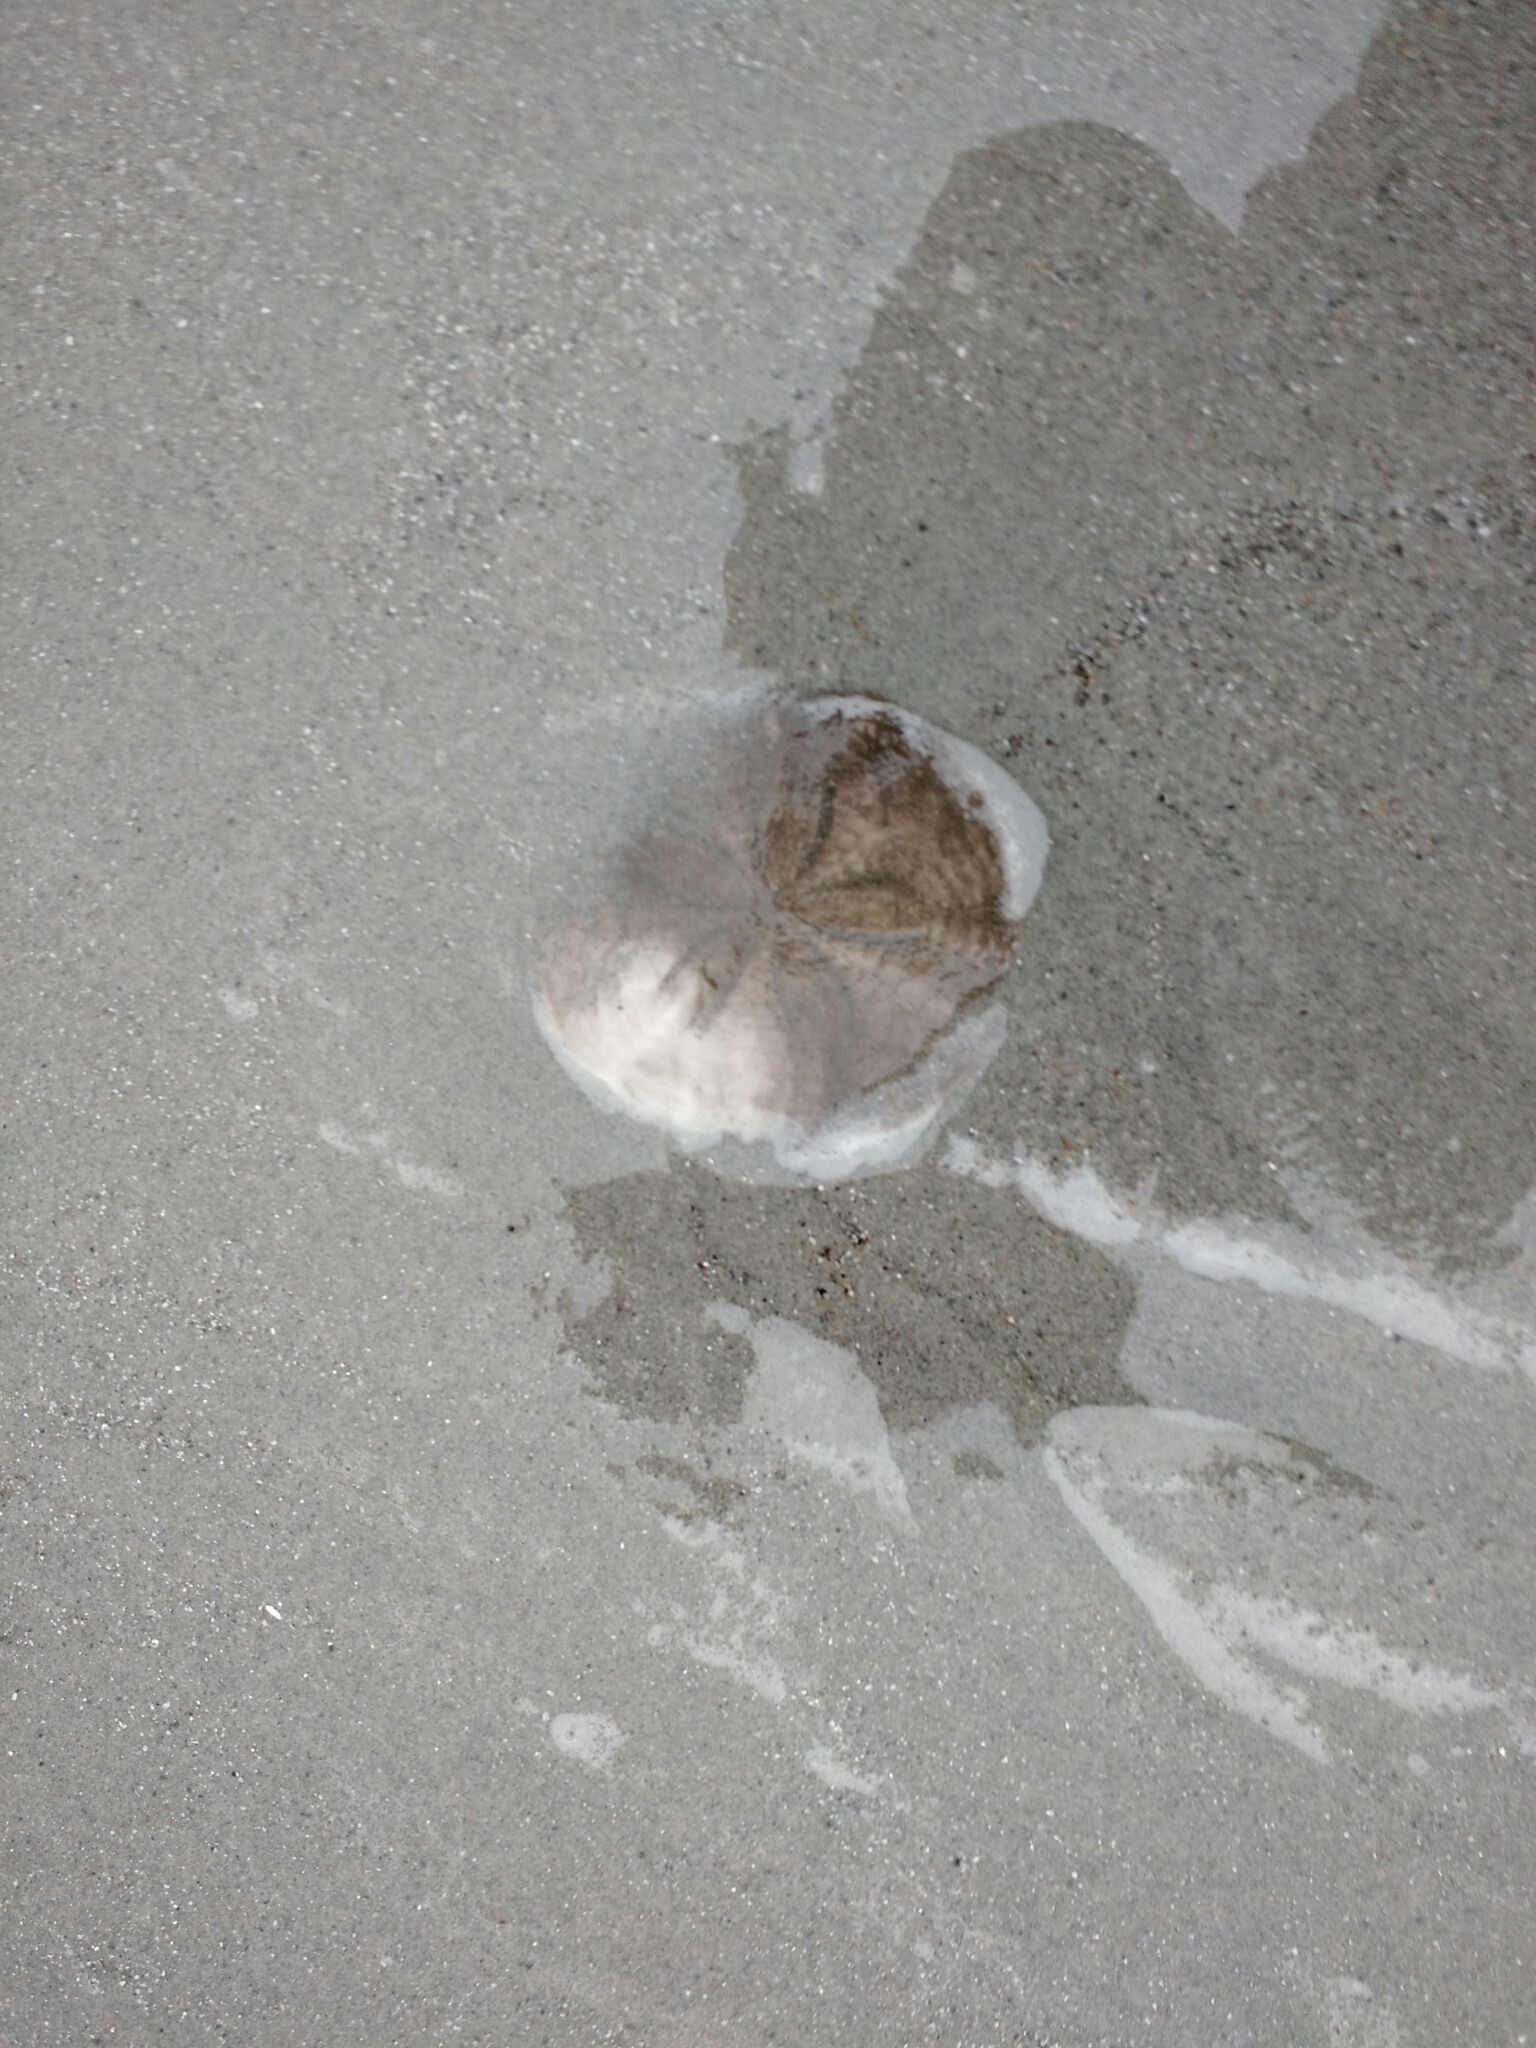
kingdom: Animalia
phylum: Echinodermata
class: Echinoidea
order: Echinolampadacea
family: Echinarachniidae
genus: Echinarachnius
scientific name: Echinarachnius parma
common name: Common sand dollar
